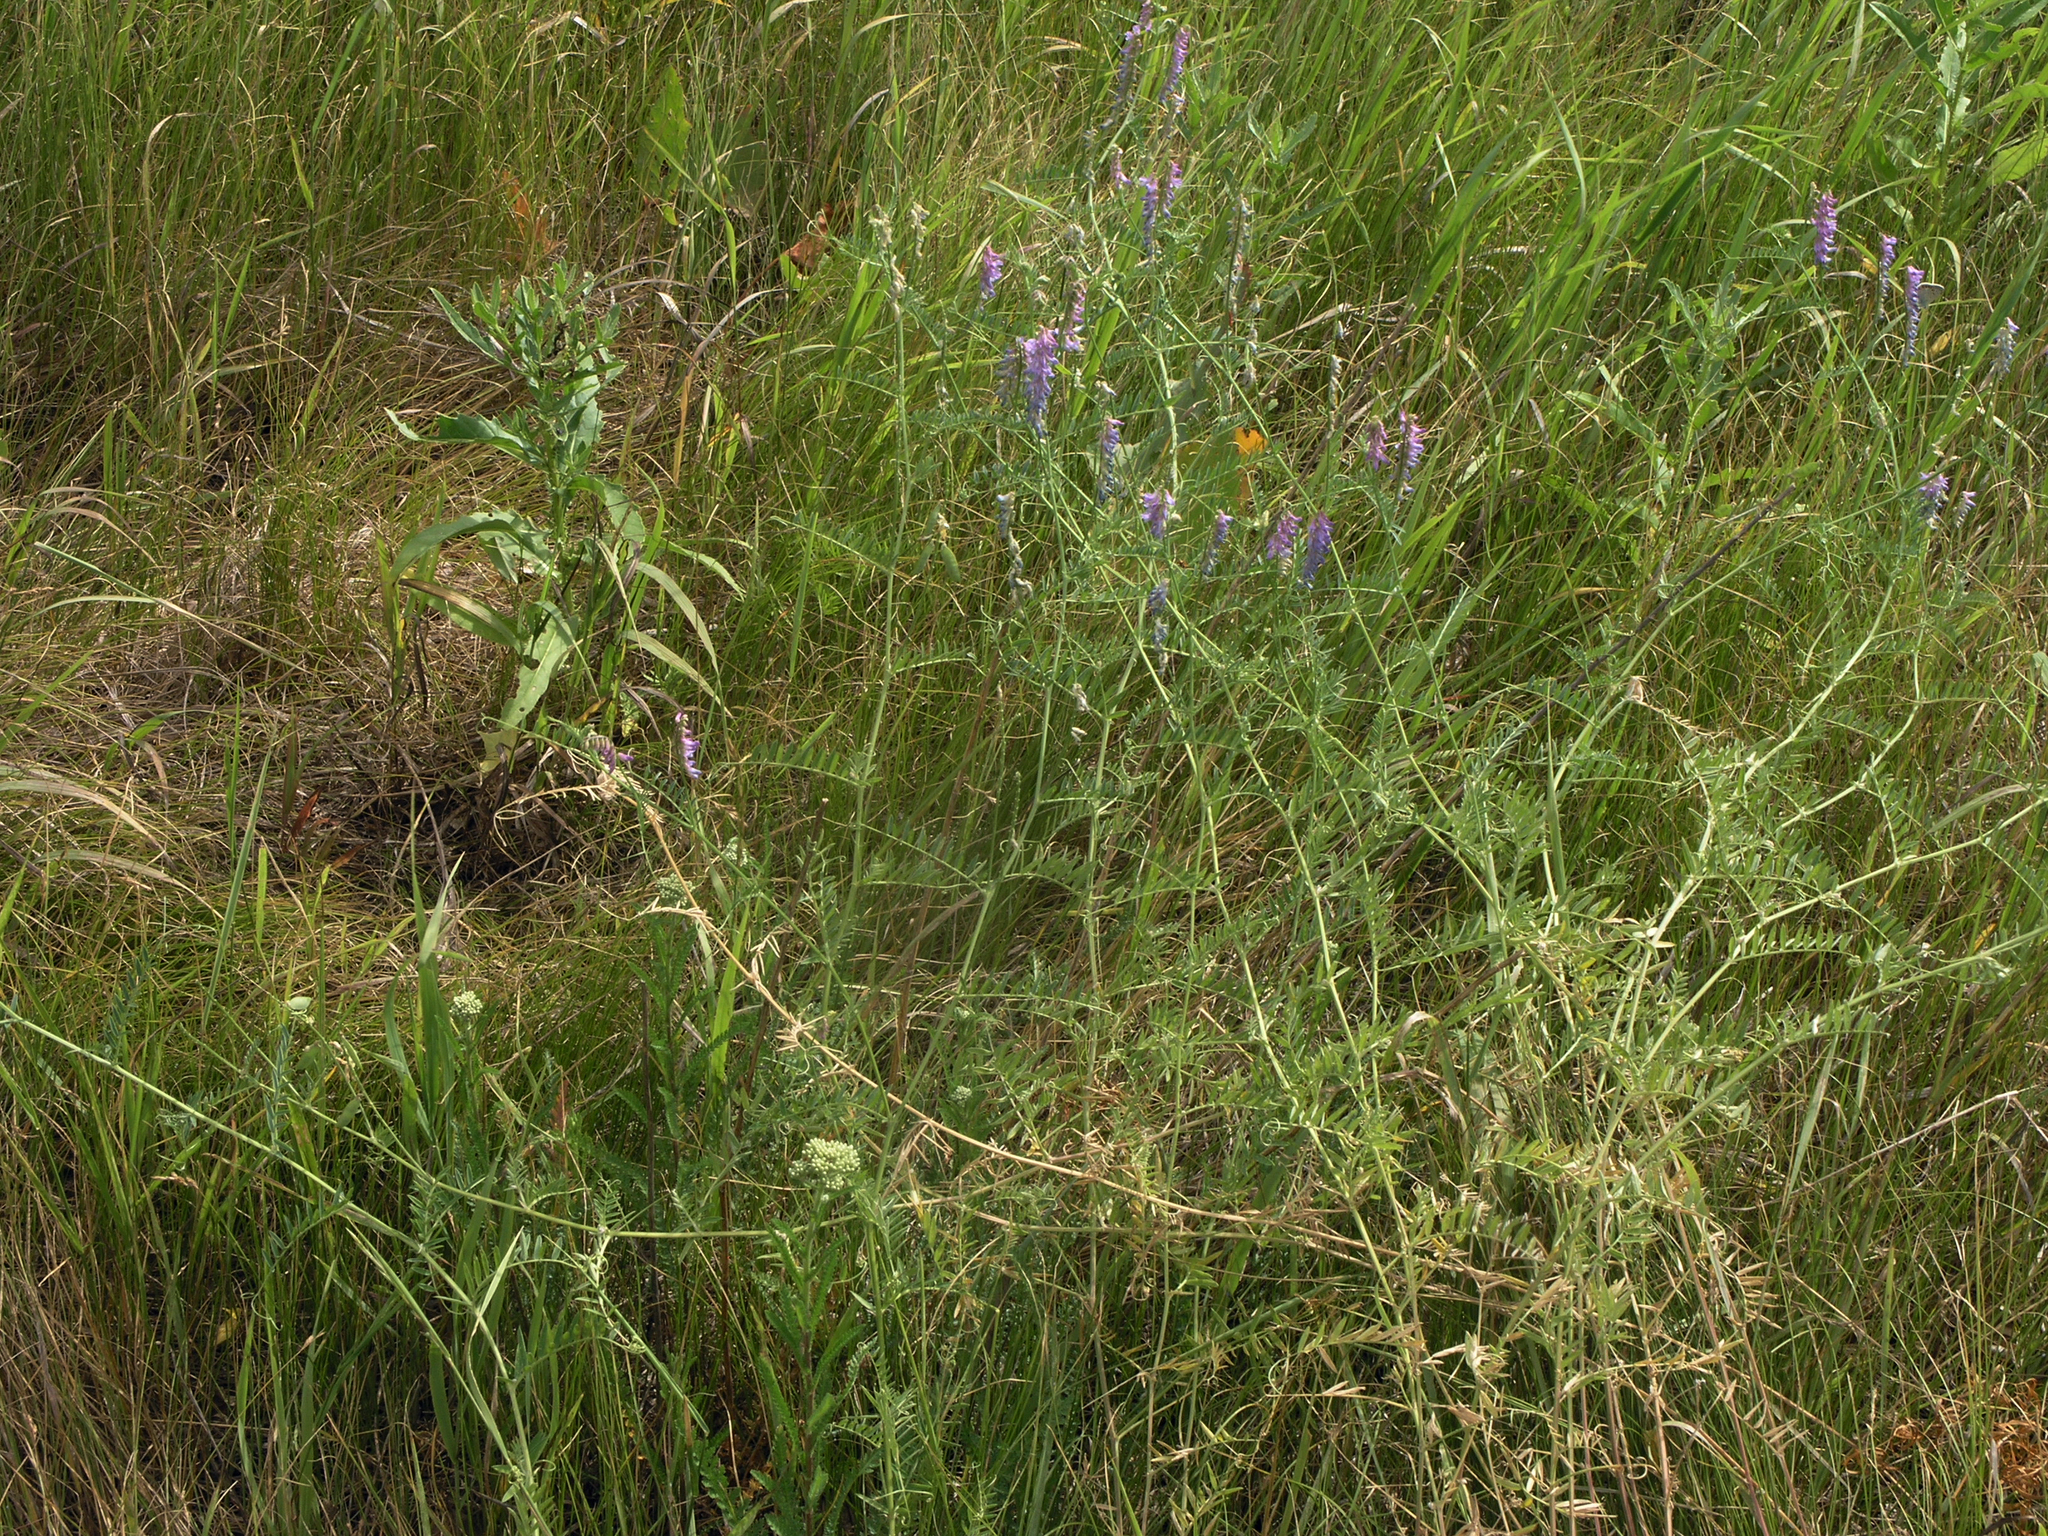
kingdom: Plantae
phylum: Tracheophyta
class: Magnoliopsida
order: Fabales
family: Fabaceae
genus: Vicia
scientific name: Vicia cracca
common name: Bird vetch
